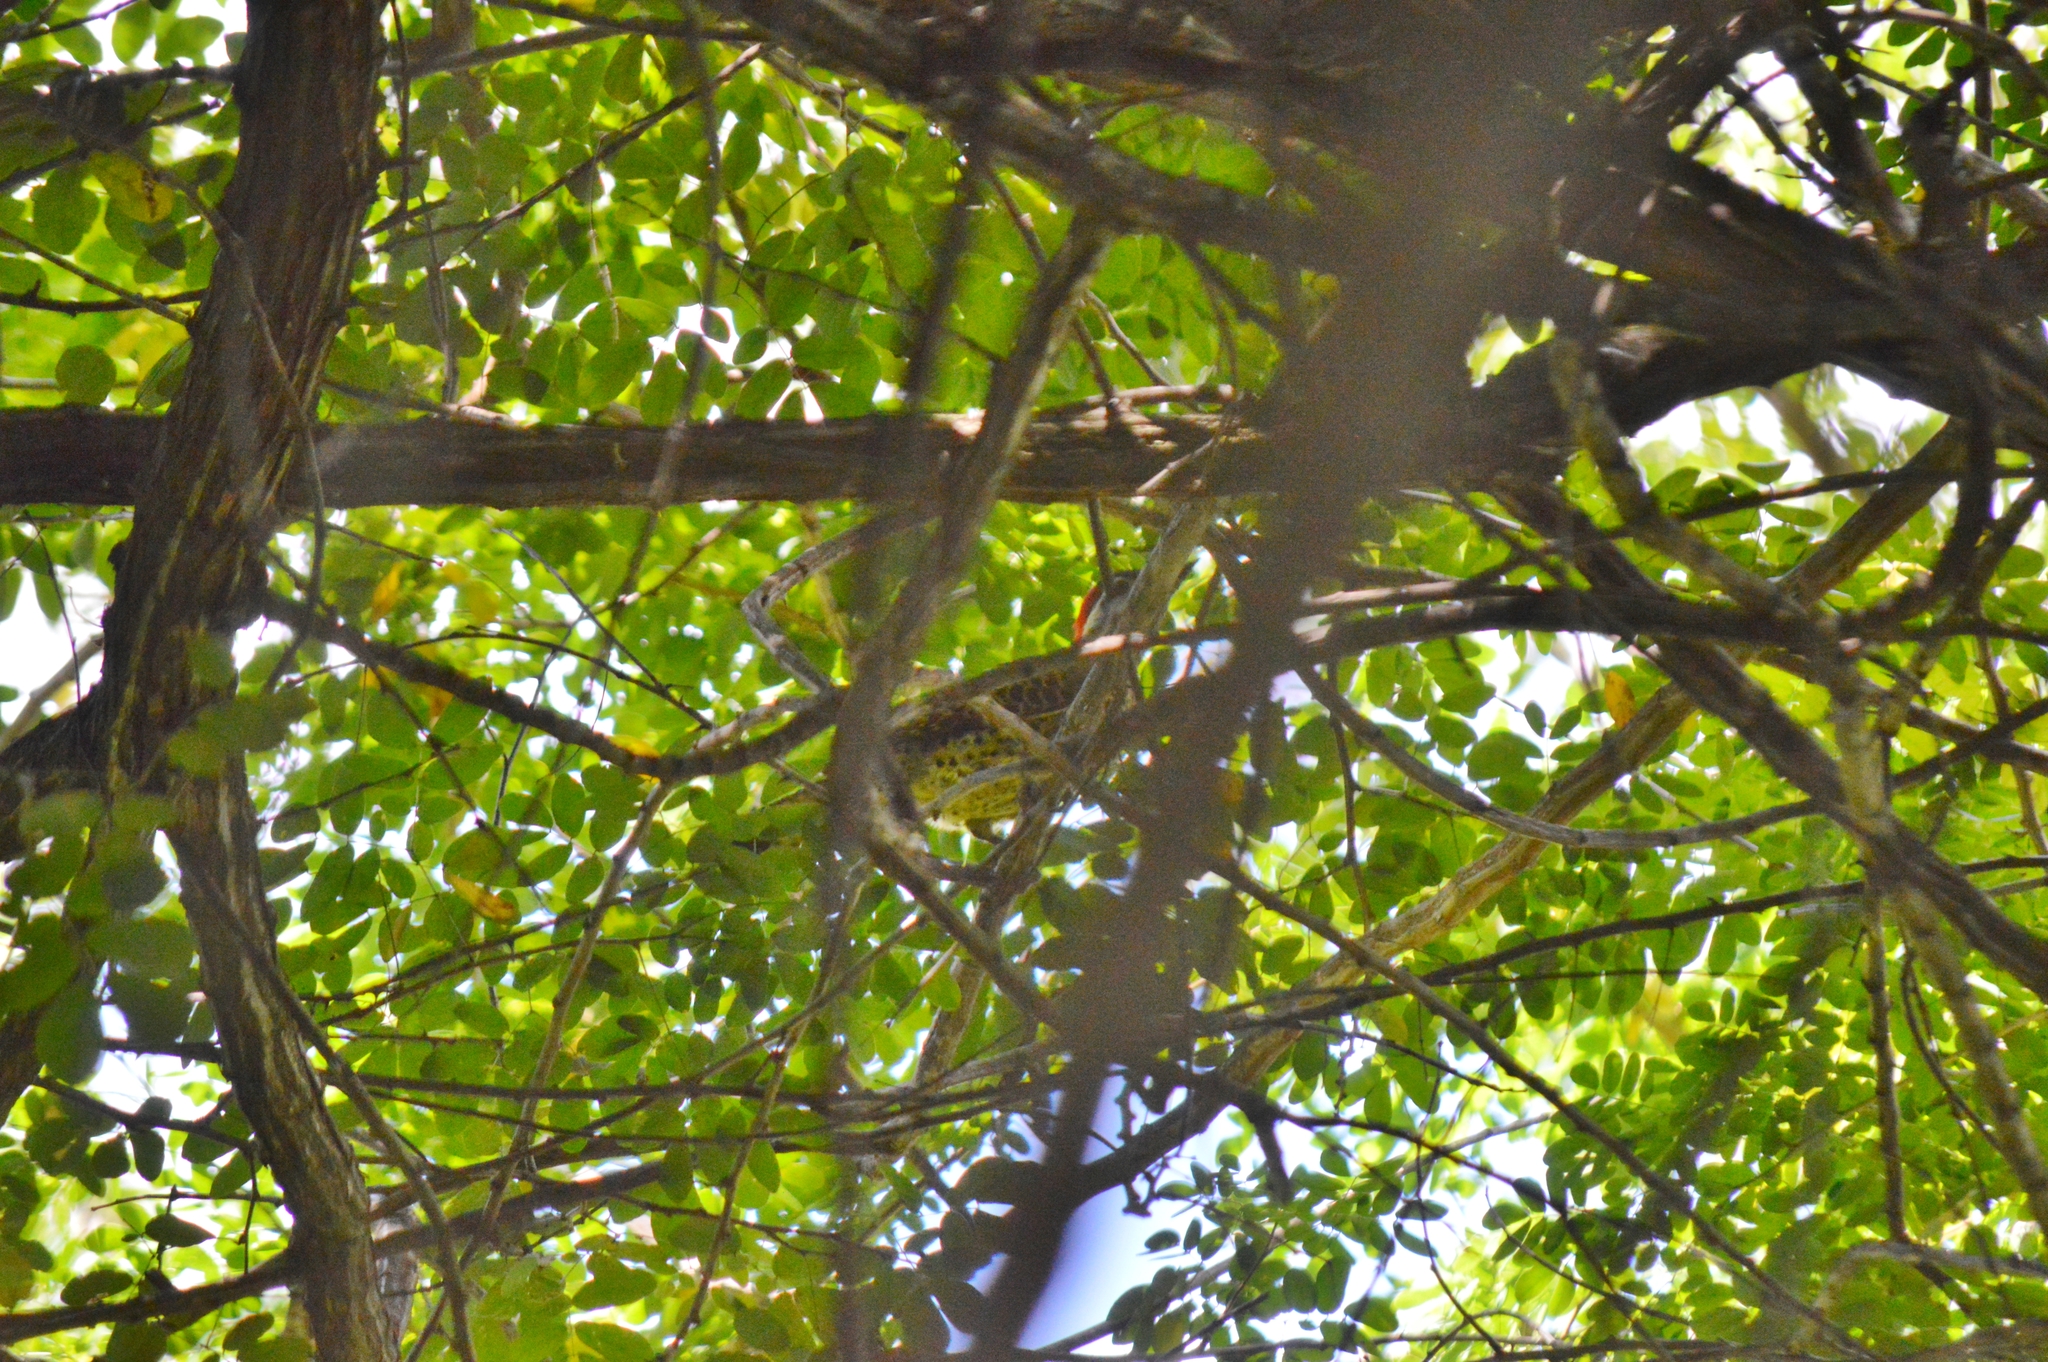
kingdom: Animalia
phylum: Chordata
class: Aves
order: Piciformes
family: Picidae
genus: Colaptes
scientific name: Colaptes melanochloros
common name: Green-barred woodpecker
